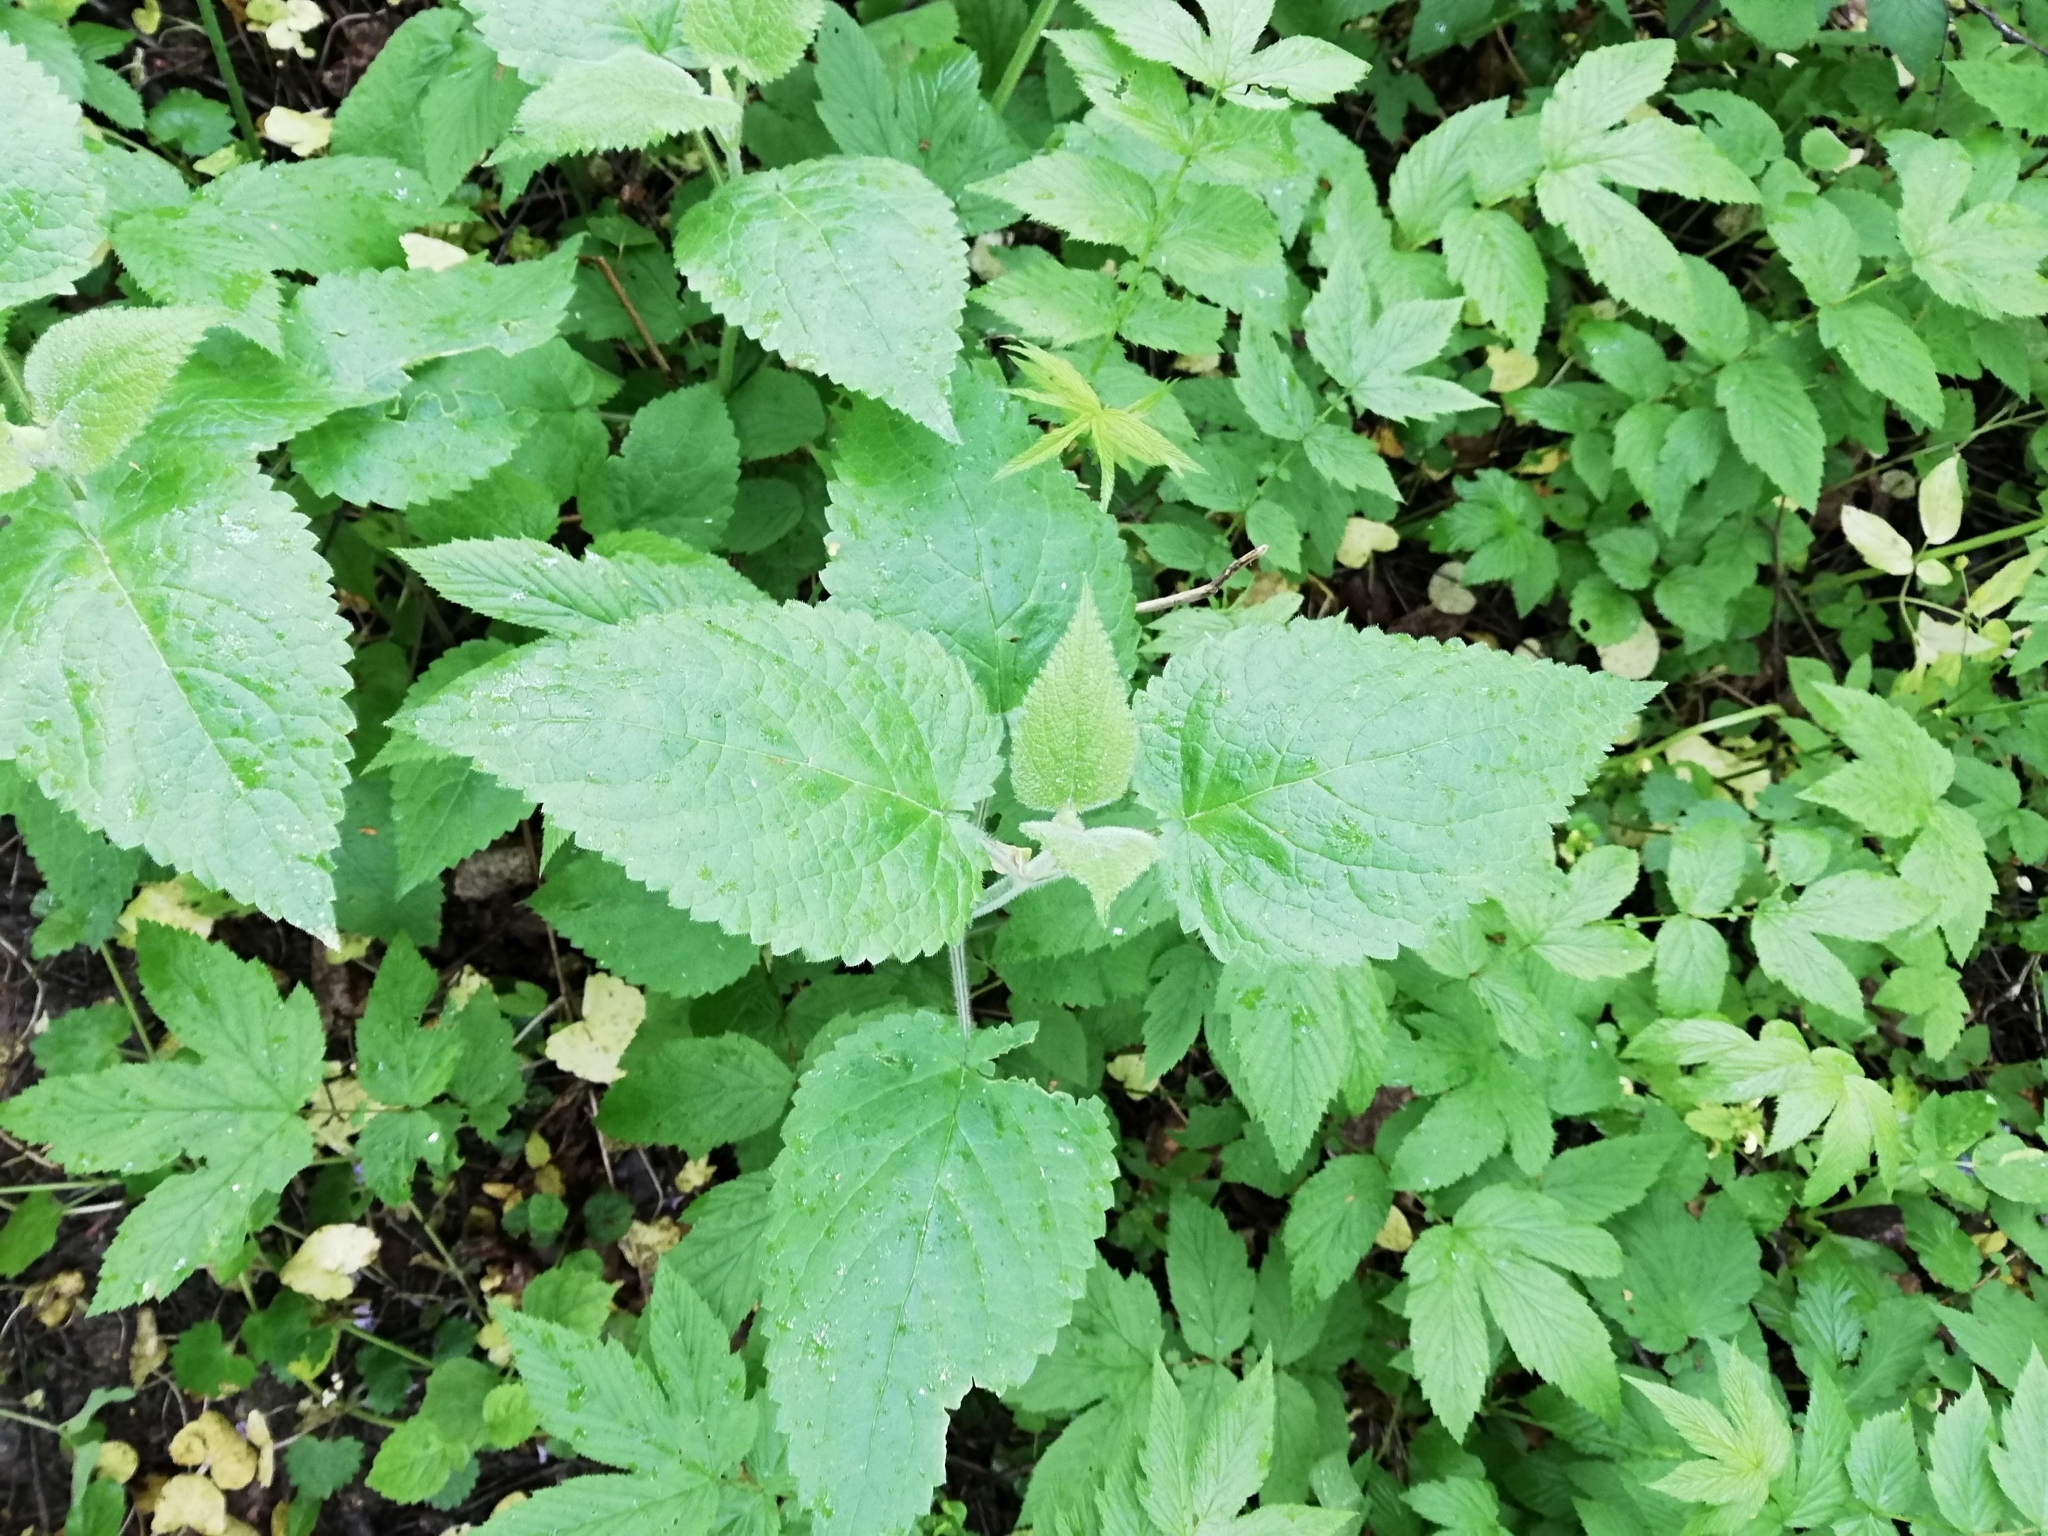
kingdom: Plantae
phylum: Tracheophyta
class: Magnoliopsida
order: Lamiales
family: Lamiaceae
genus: Stachys
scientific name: Stachys sylvatica
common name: Hedge woundwort
